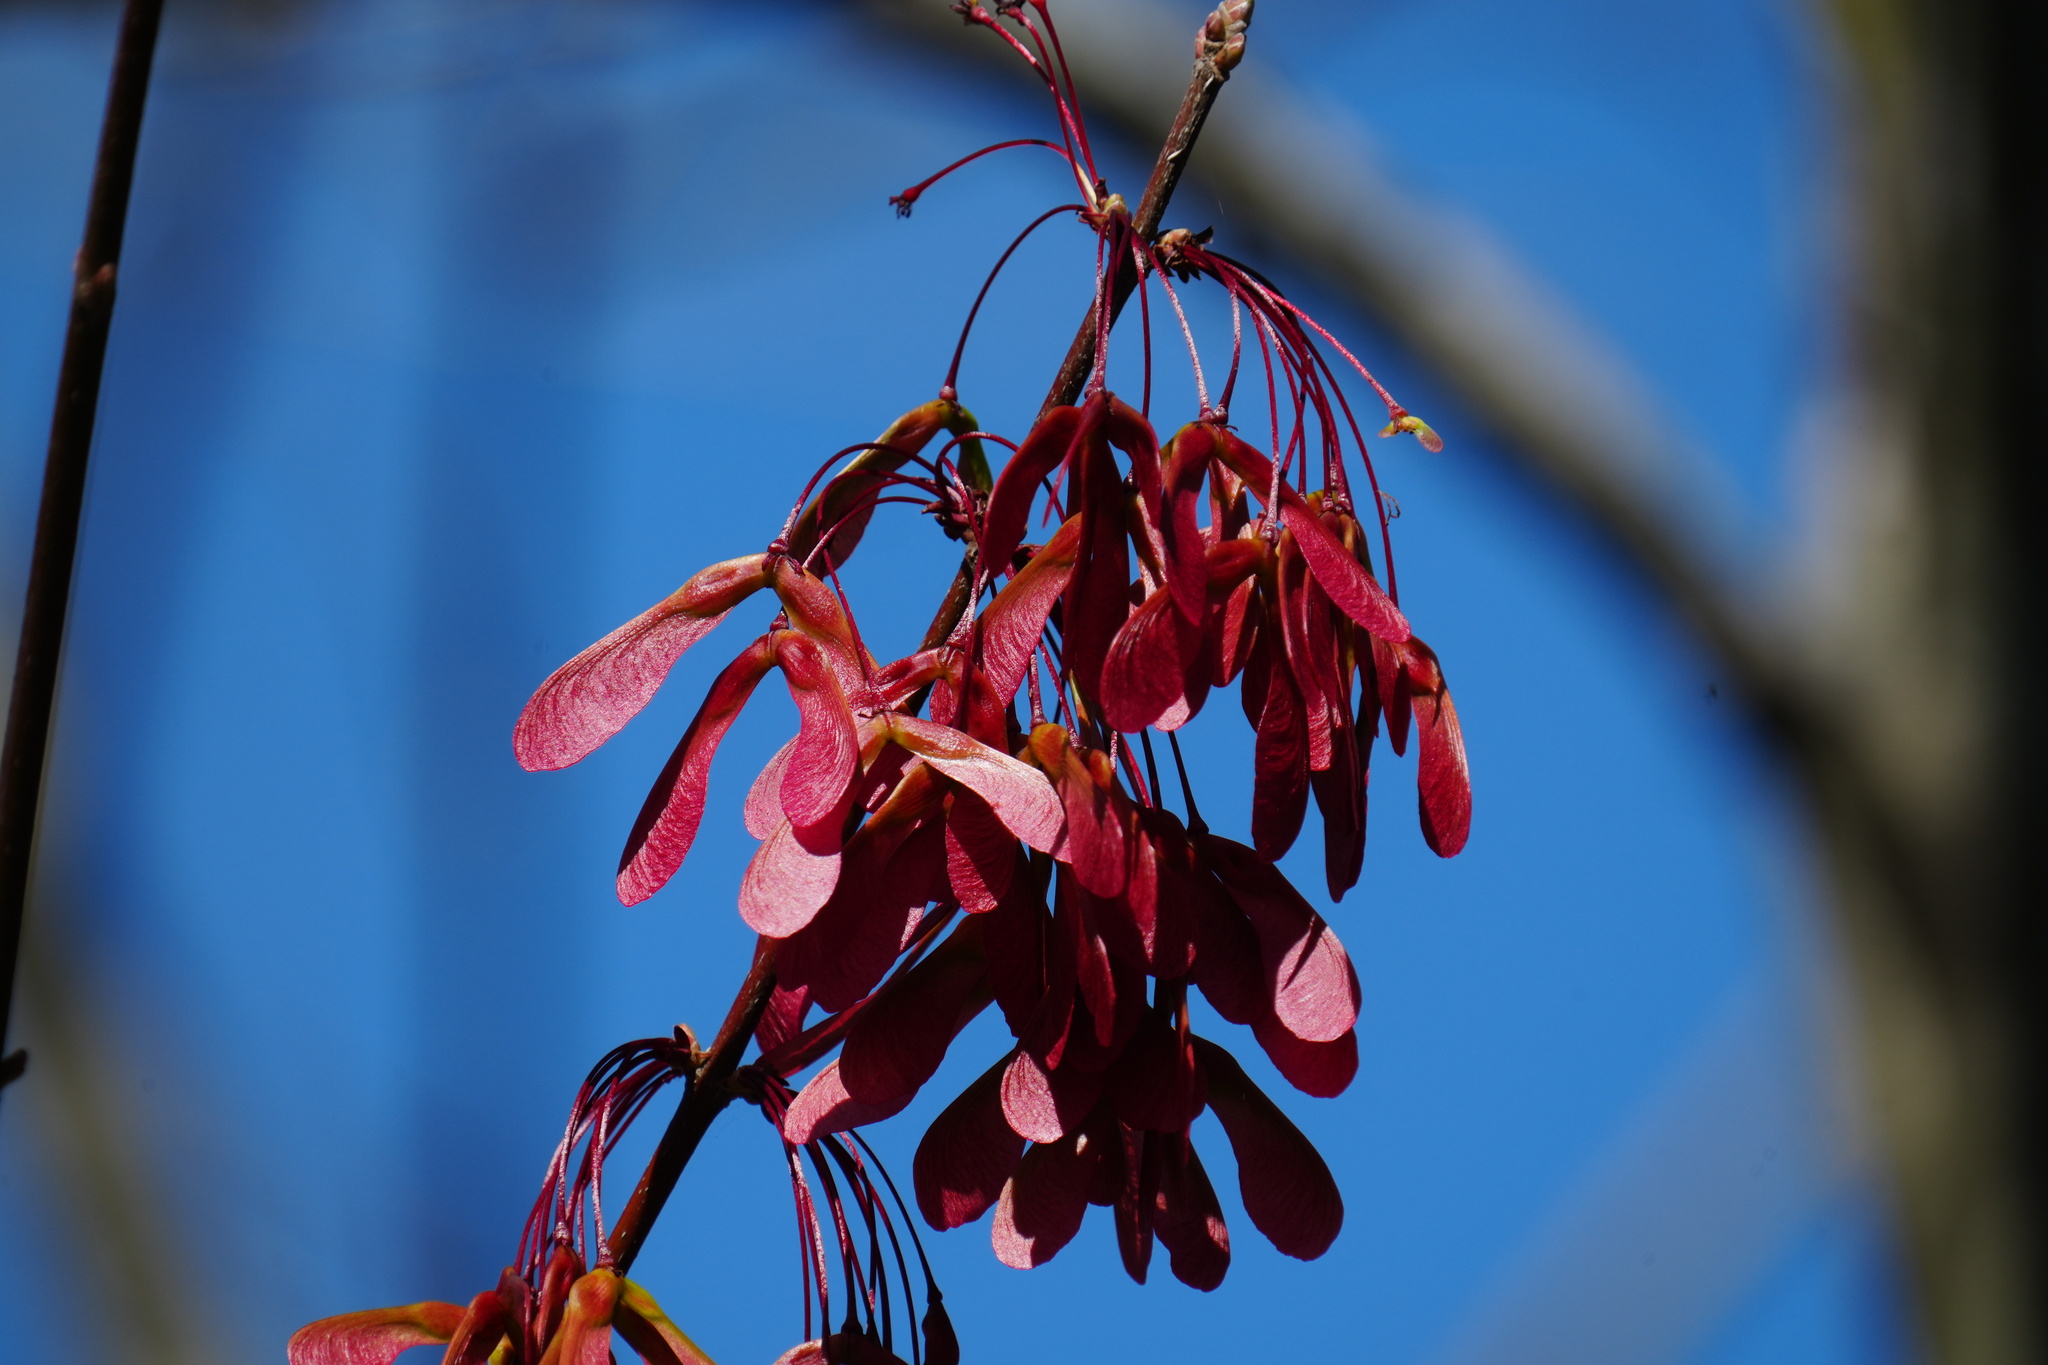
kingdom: Plantae
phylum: Tracheophyta
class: Magnoliopsida
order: Sapindales
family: Sapindaceae
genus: Acer
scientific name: Acer rubrum
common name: Red maple
